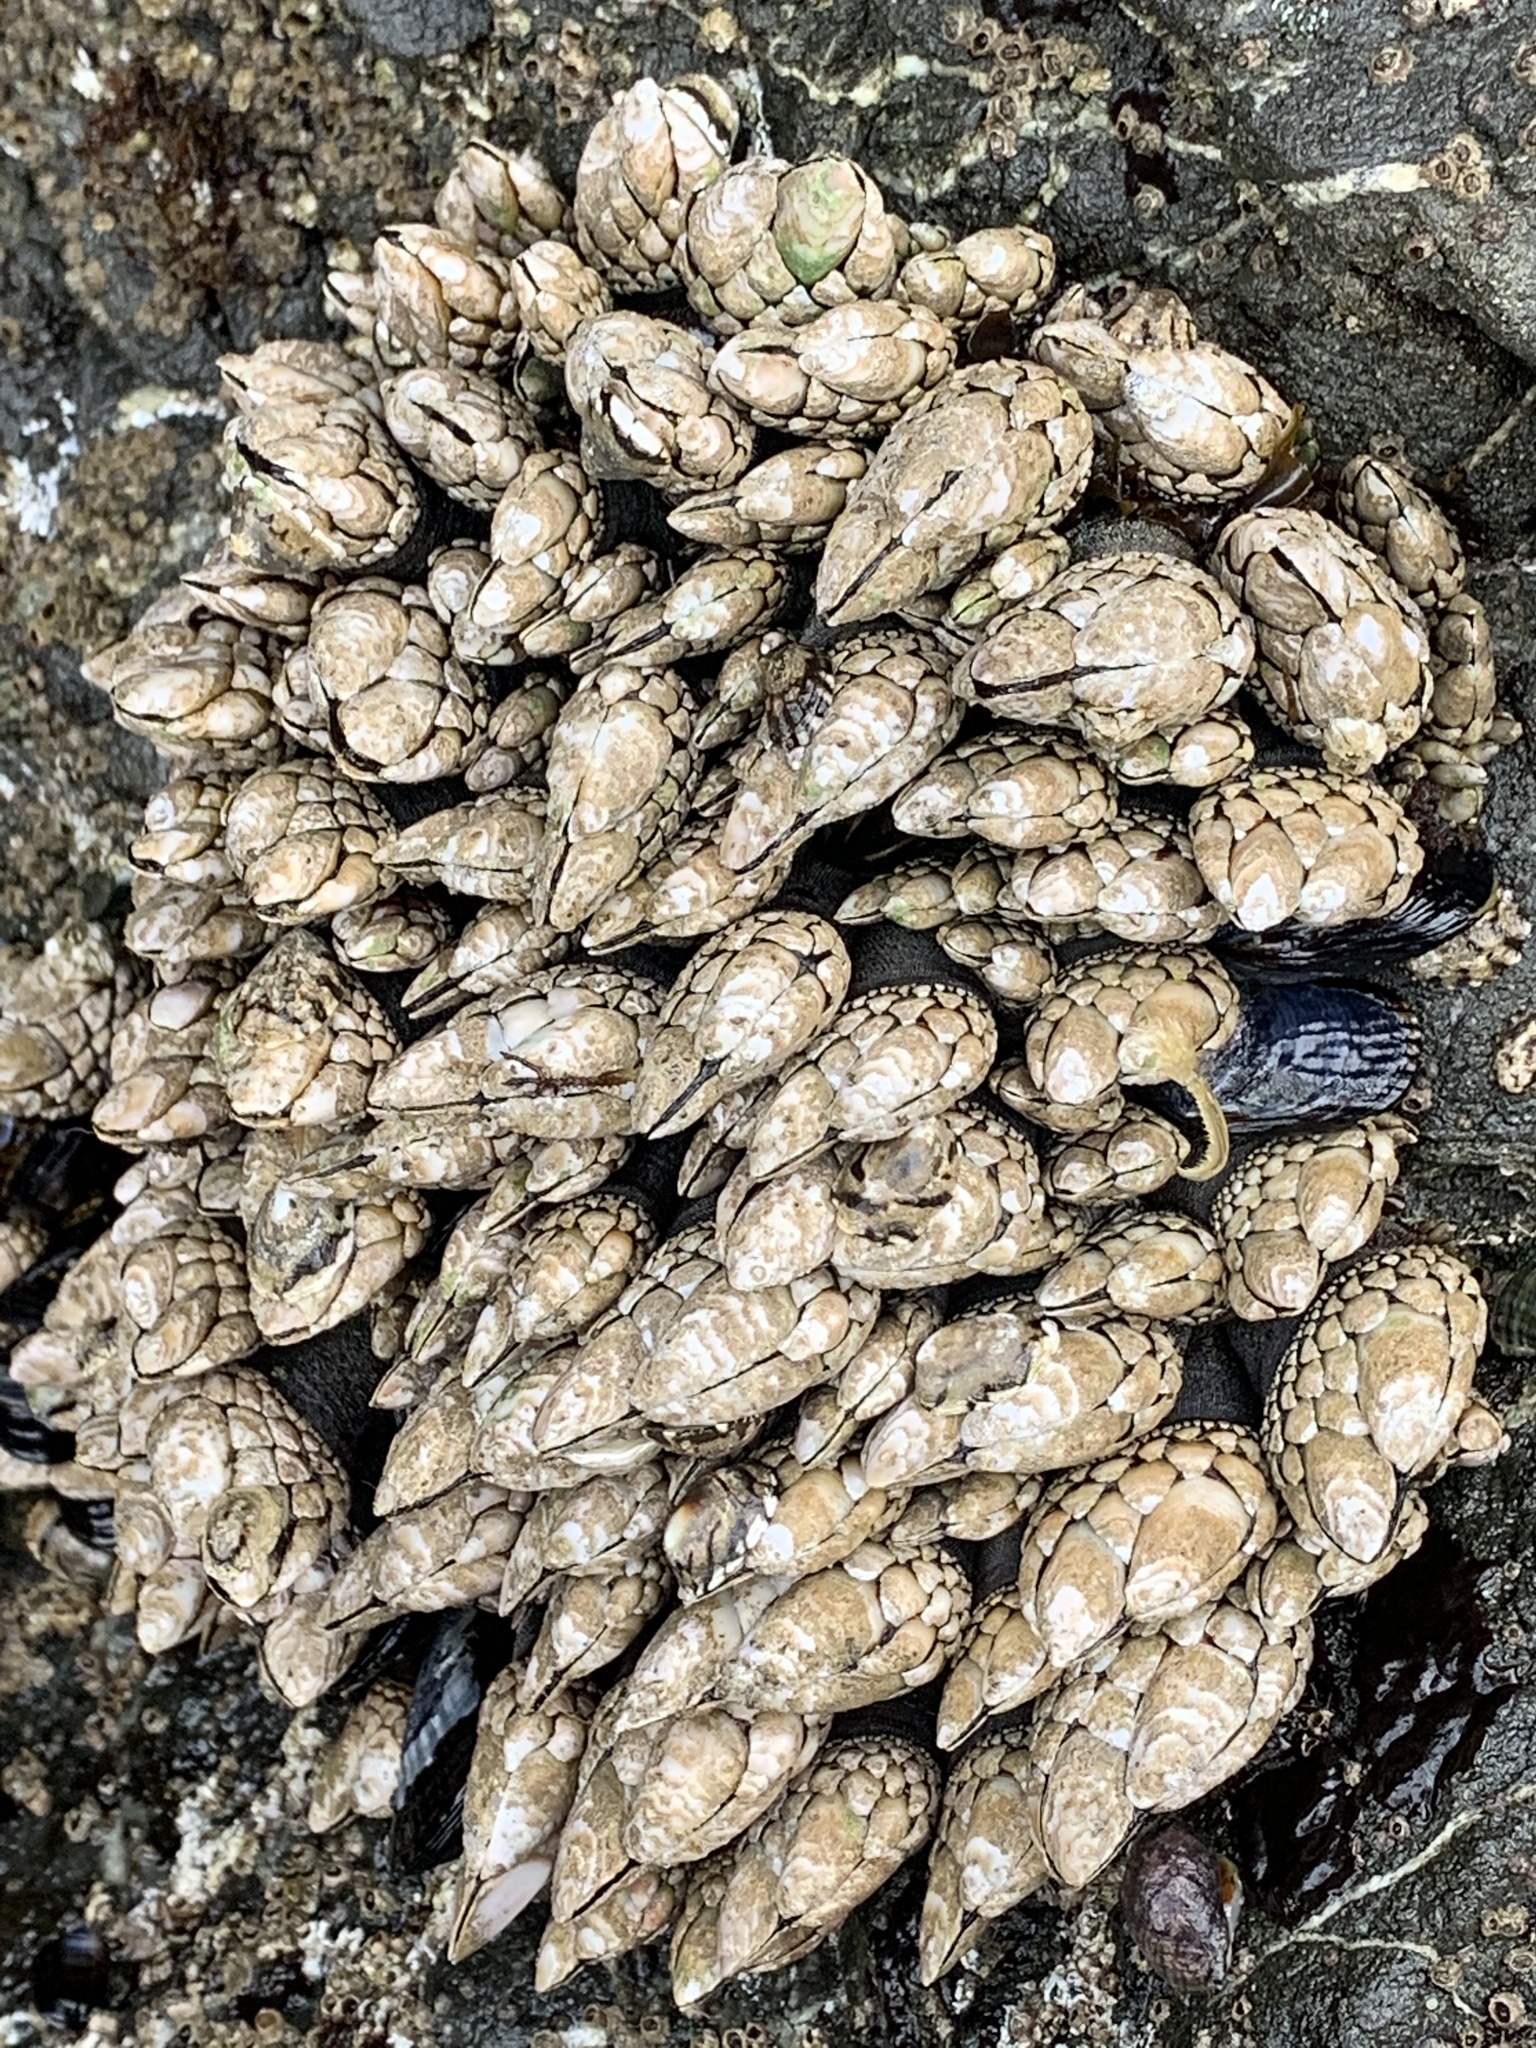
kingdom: Animalia
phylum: Arthropoda
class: Maxillopoda
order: Pedunculata
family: Pollicipedidae
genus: Pollicipes
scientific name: Pollicipes polymerus
